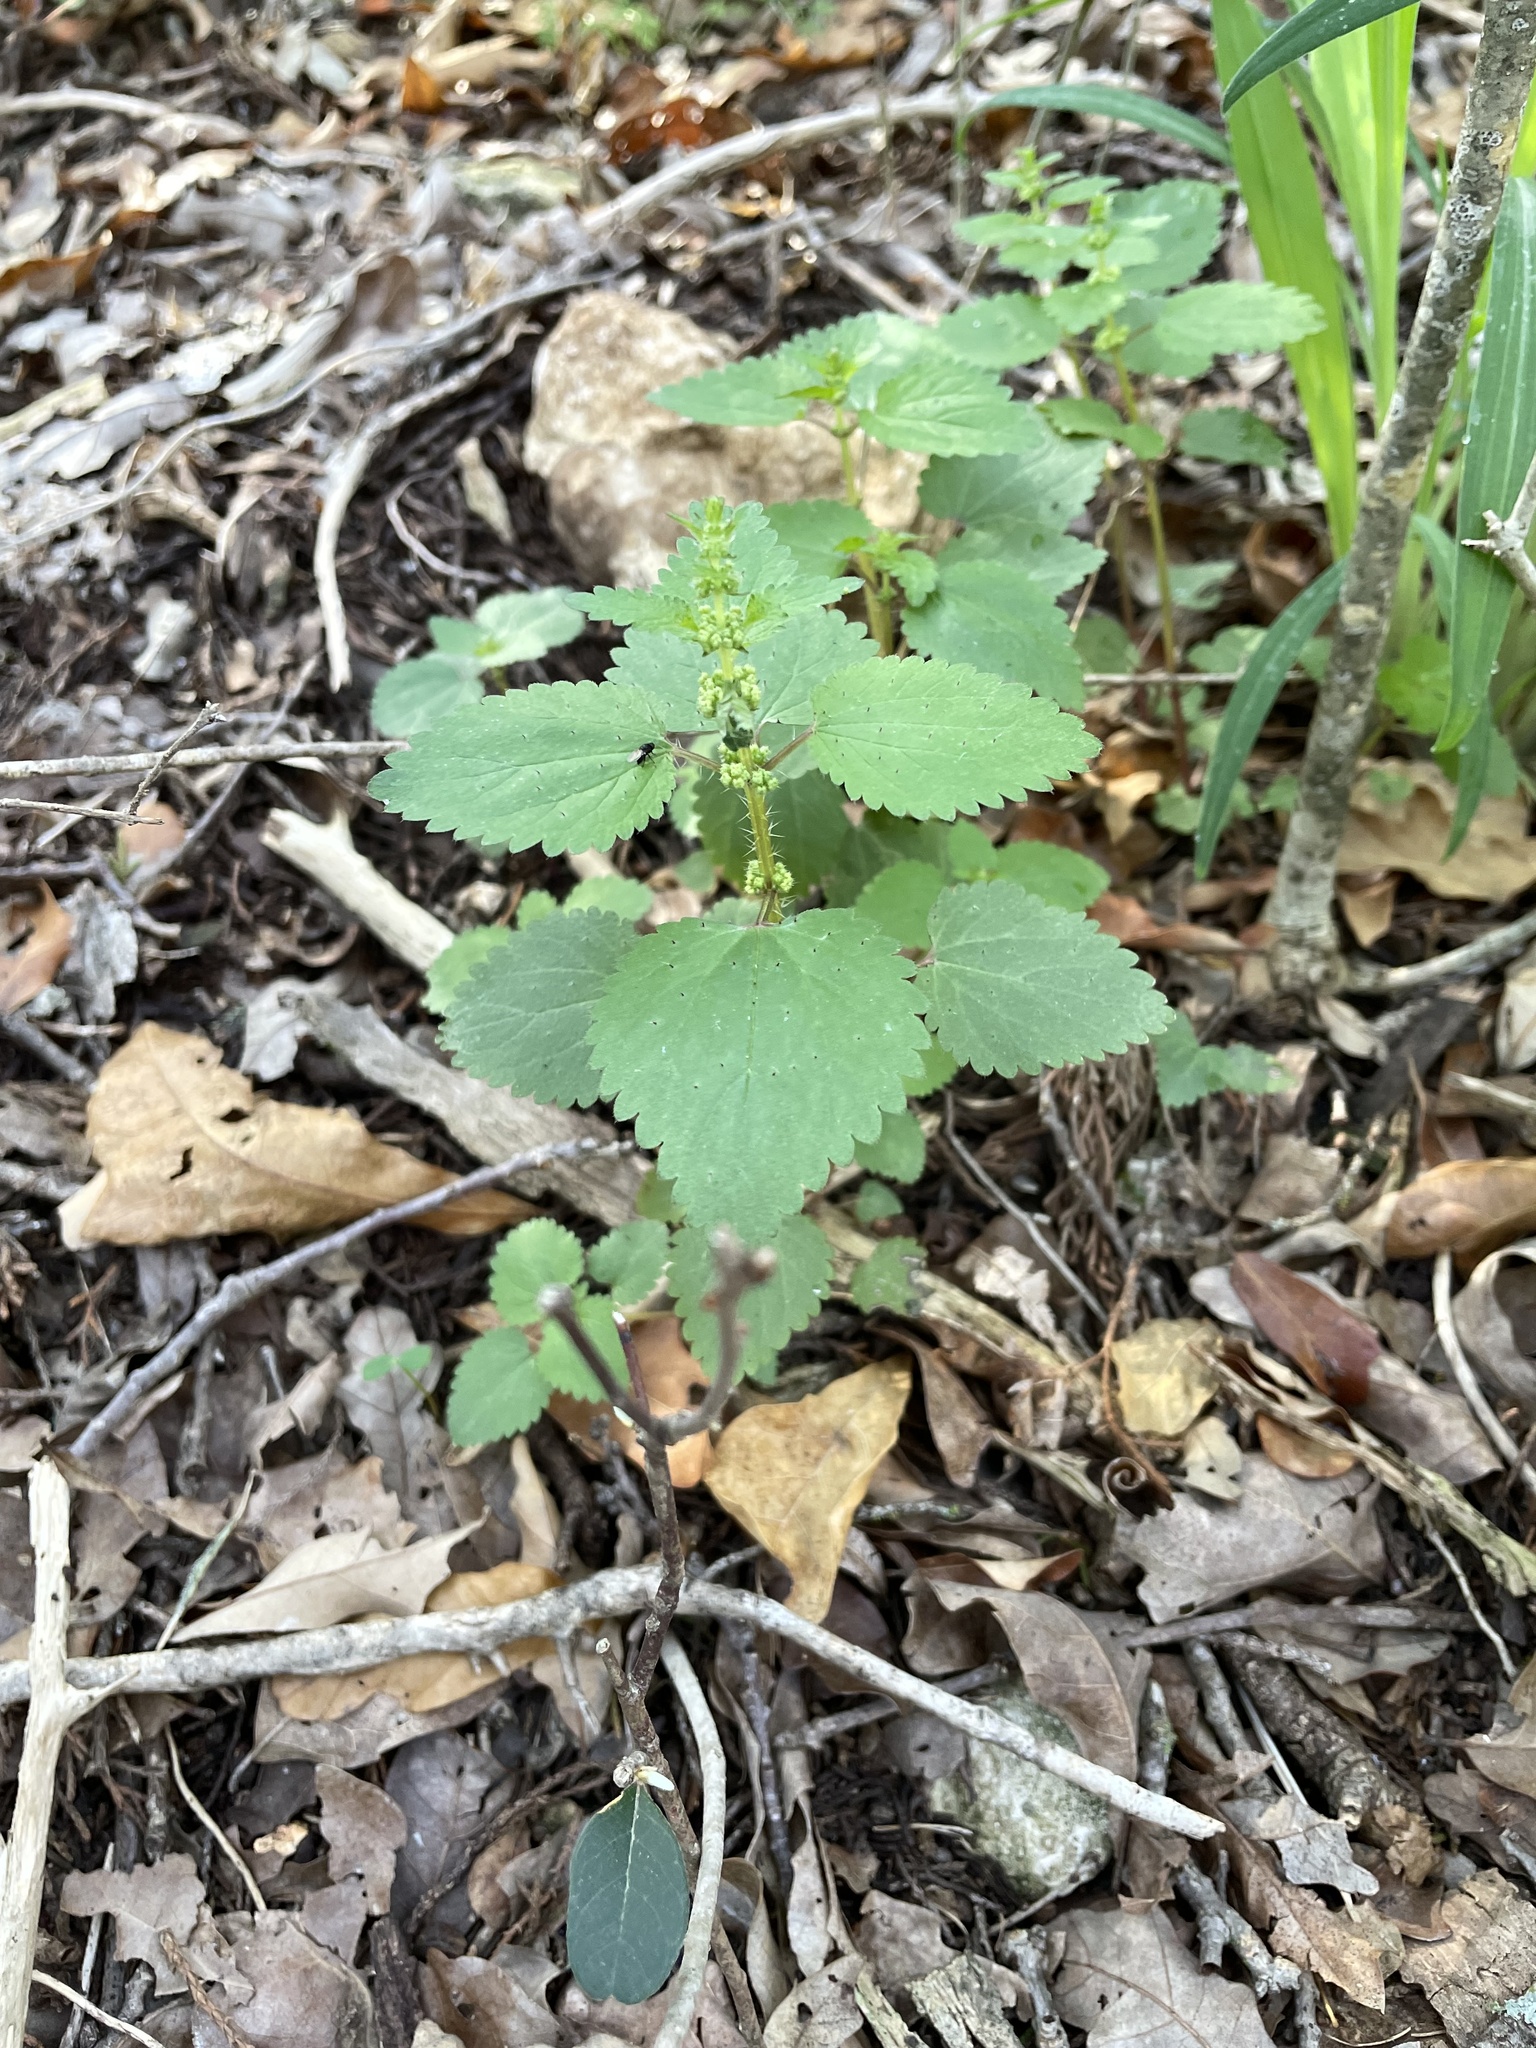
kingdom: Plantae
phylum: Tracheophyta
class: Magnoliopsida
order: Rosales
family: Urticaceae
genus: Urtica
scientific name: Urtica chamaedryoides
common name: Heart-leaf nettle
